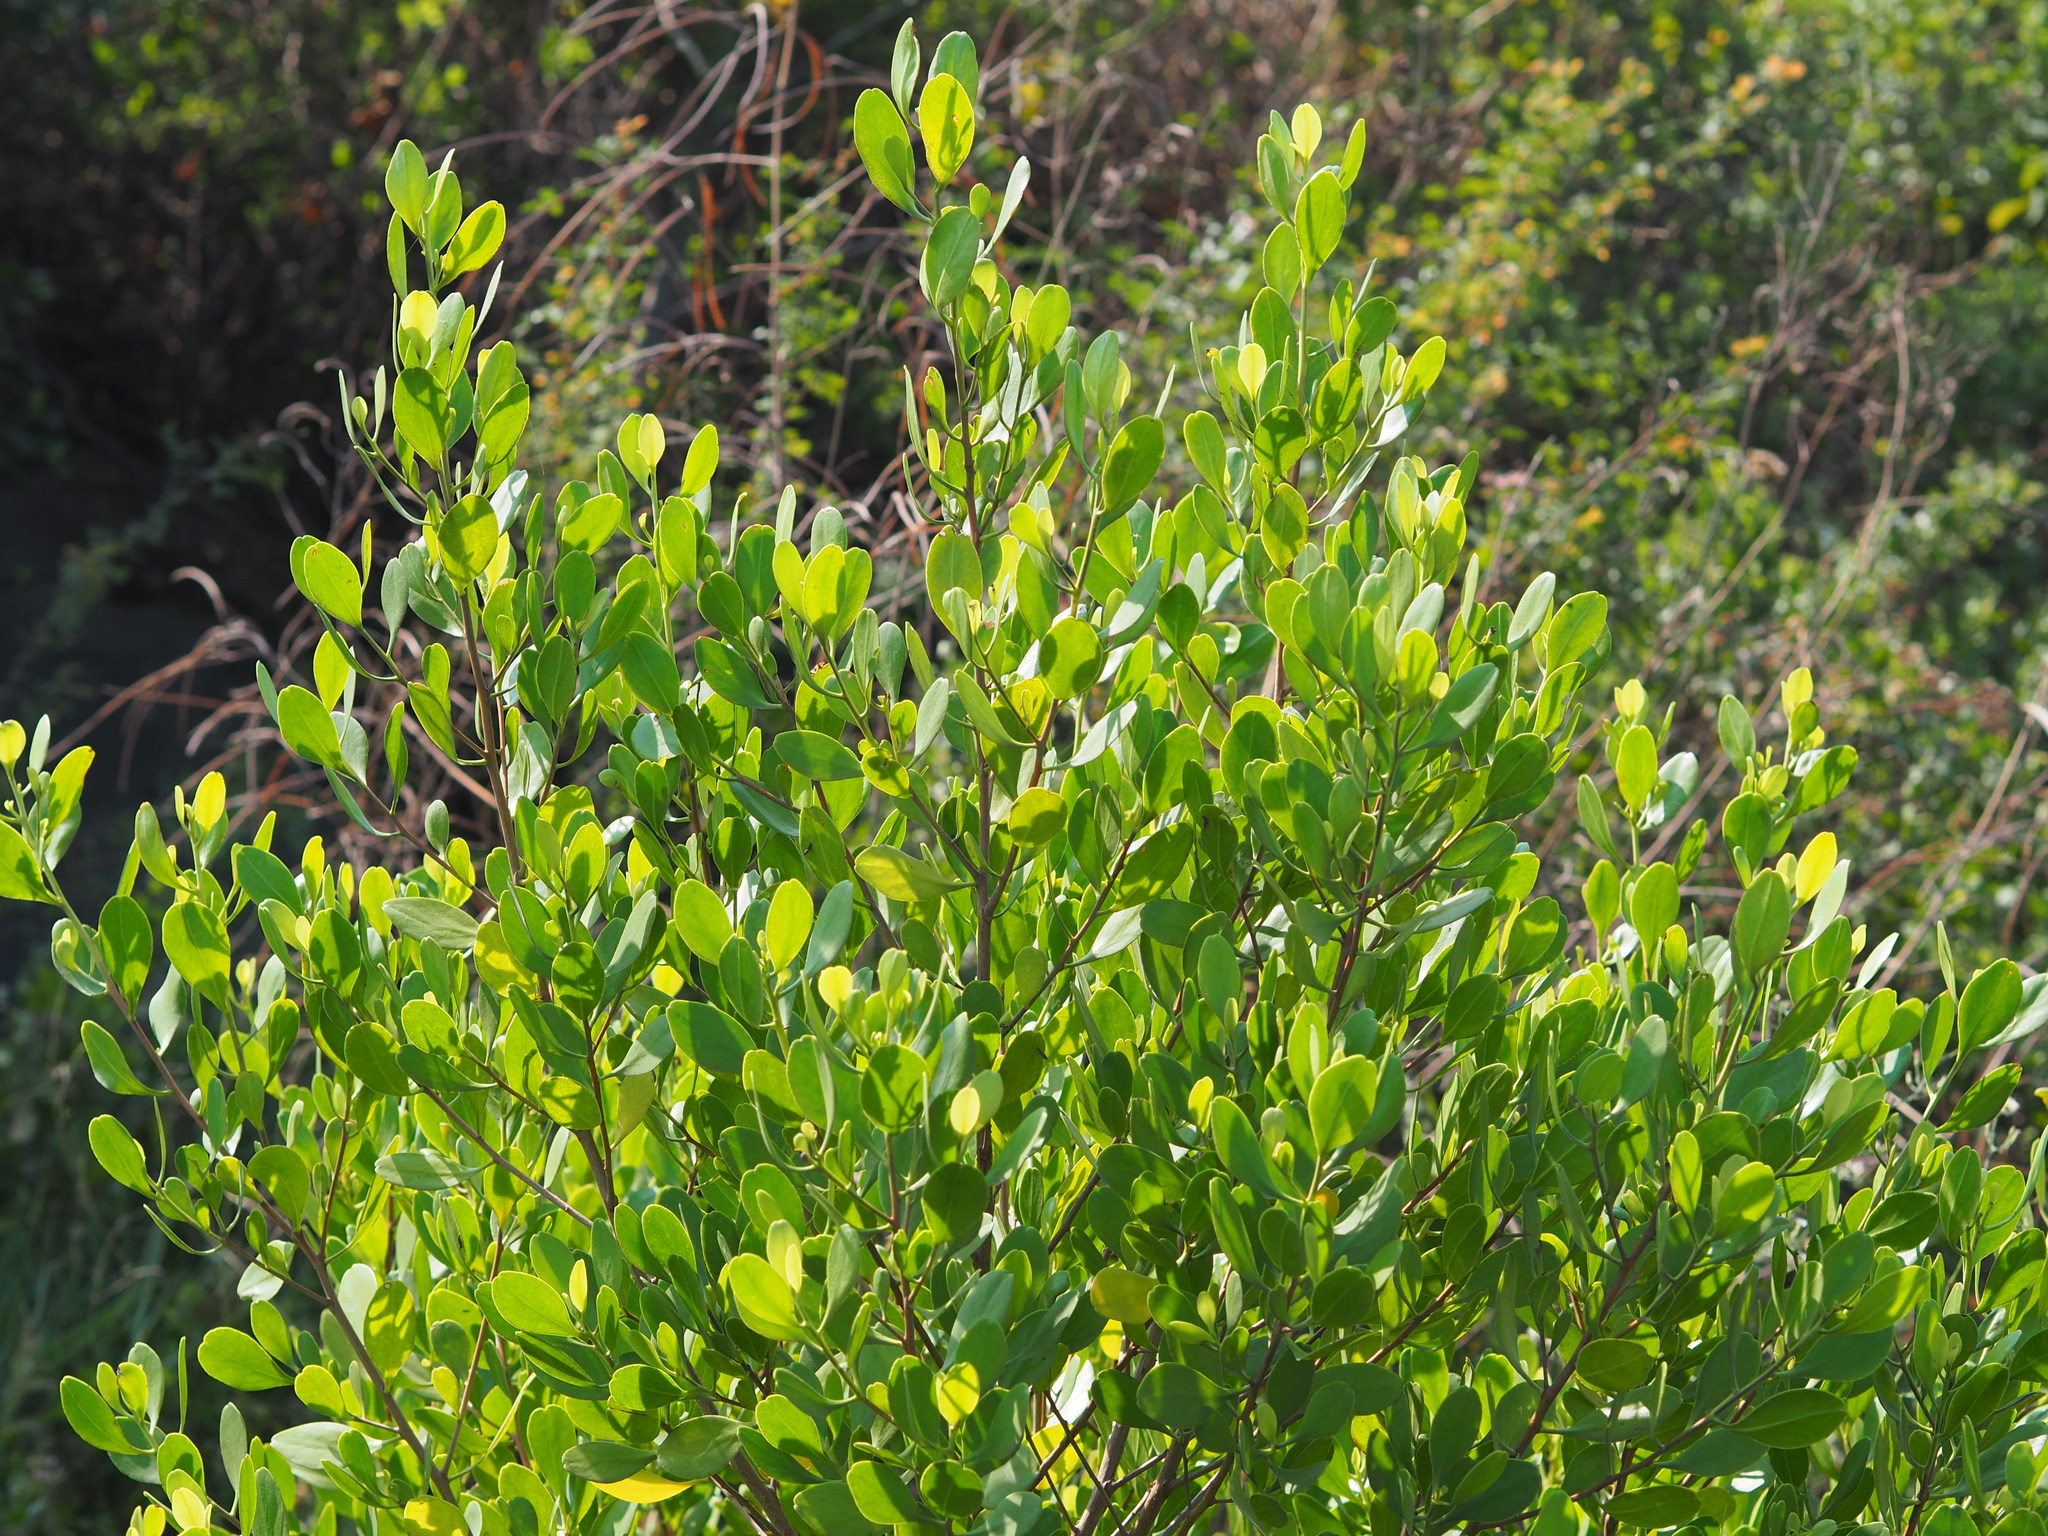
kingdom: Plantae
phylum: Tracheophyta
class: Magnoliopsida
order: Myrtales
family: Combretaceae
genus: Lumnitzera
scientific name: Lumnitzera racemosa
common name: White-flowered black mangrove
